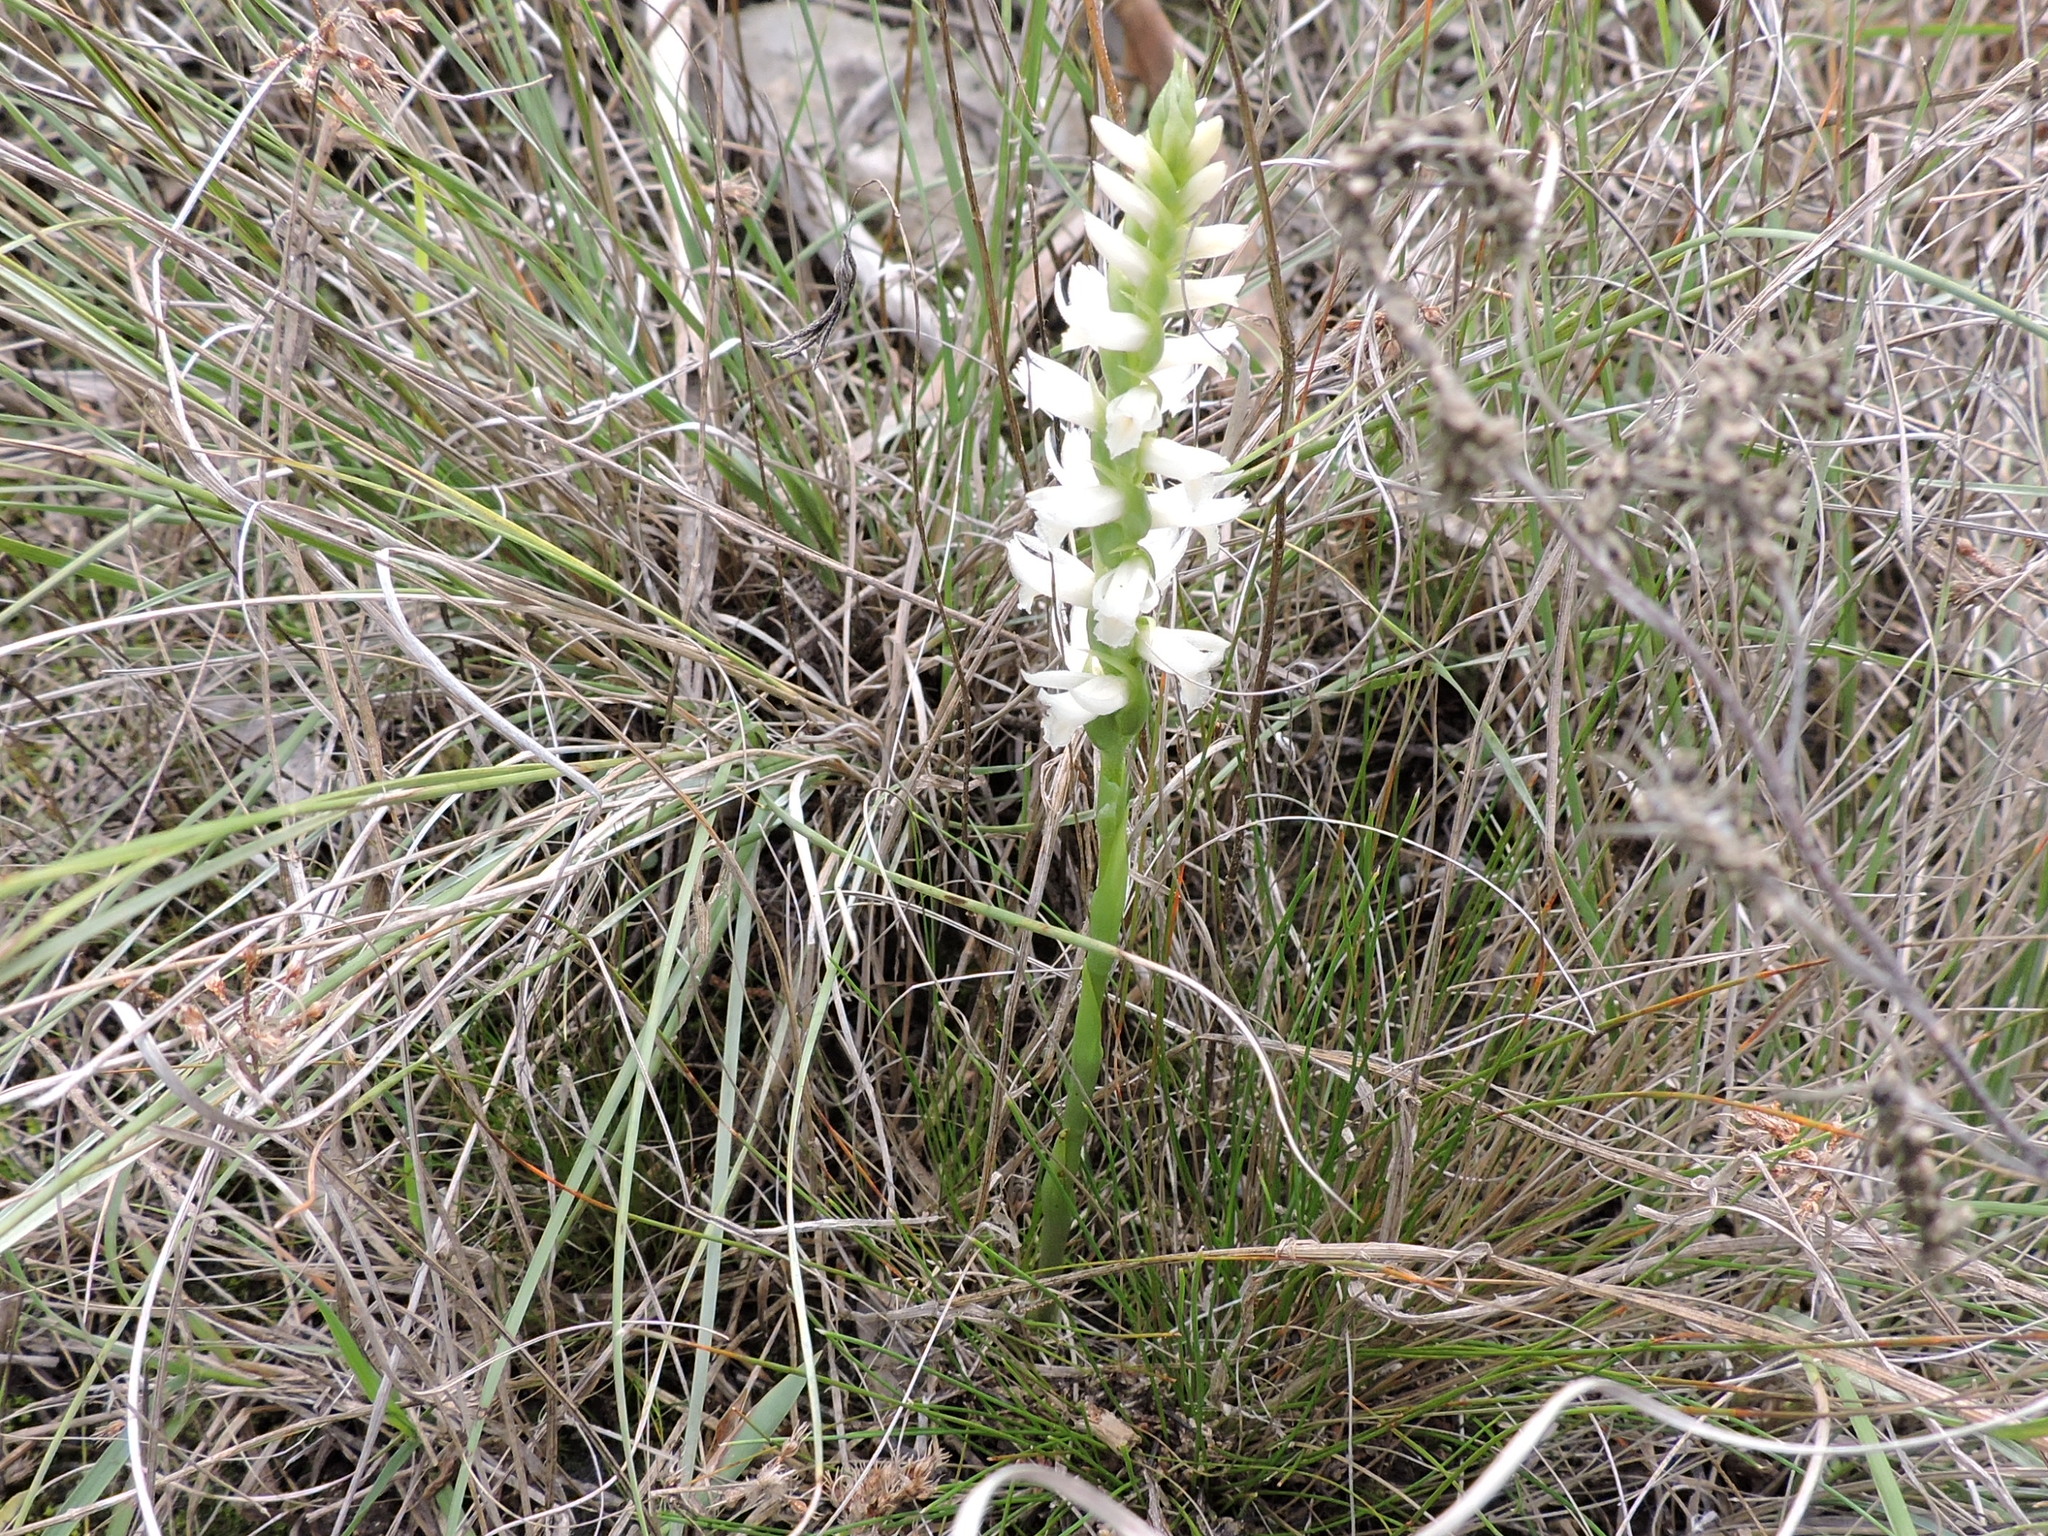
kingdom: Plantae
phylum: Tracheophyta
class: Liliopsida
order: Asparagales
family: Orchidaceae
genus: Spiranthes
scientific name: Spiranthes magnicamporum
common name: Great plains ladies'-tresses
